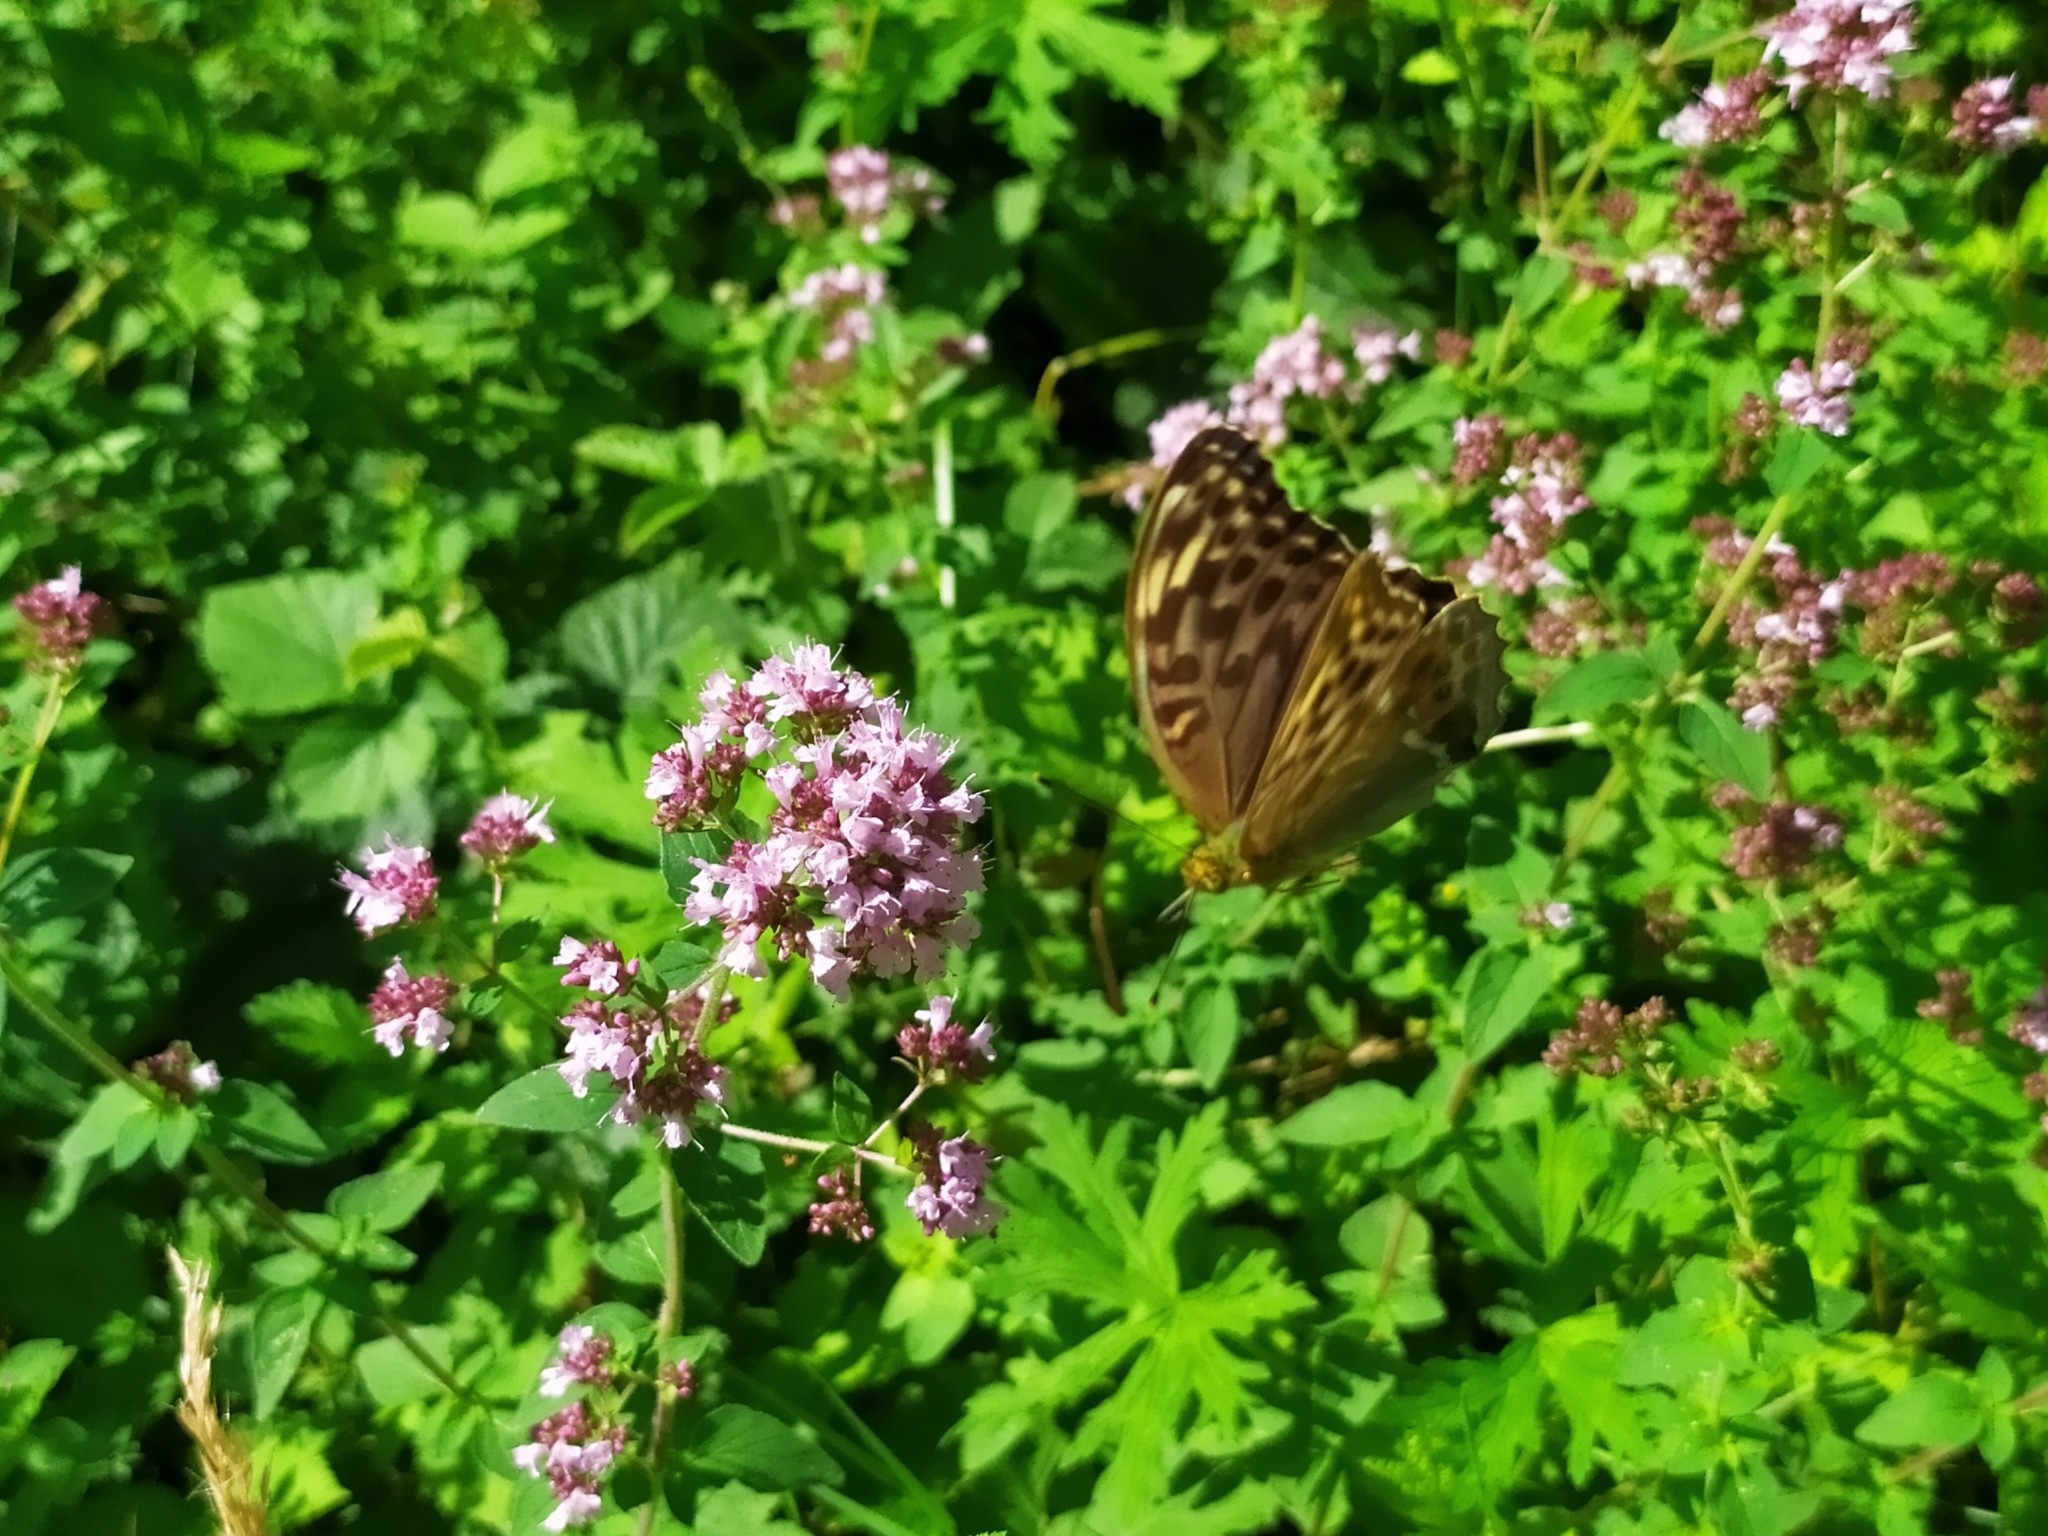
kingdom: Animalia
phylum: Arthropoda
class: Insecta
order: Lepidoptera
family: Nymphalidae
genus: Argynnis
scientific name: Argynnis paphia
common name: Silver-washed fritillary
